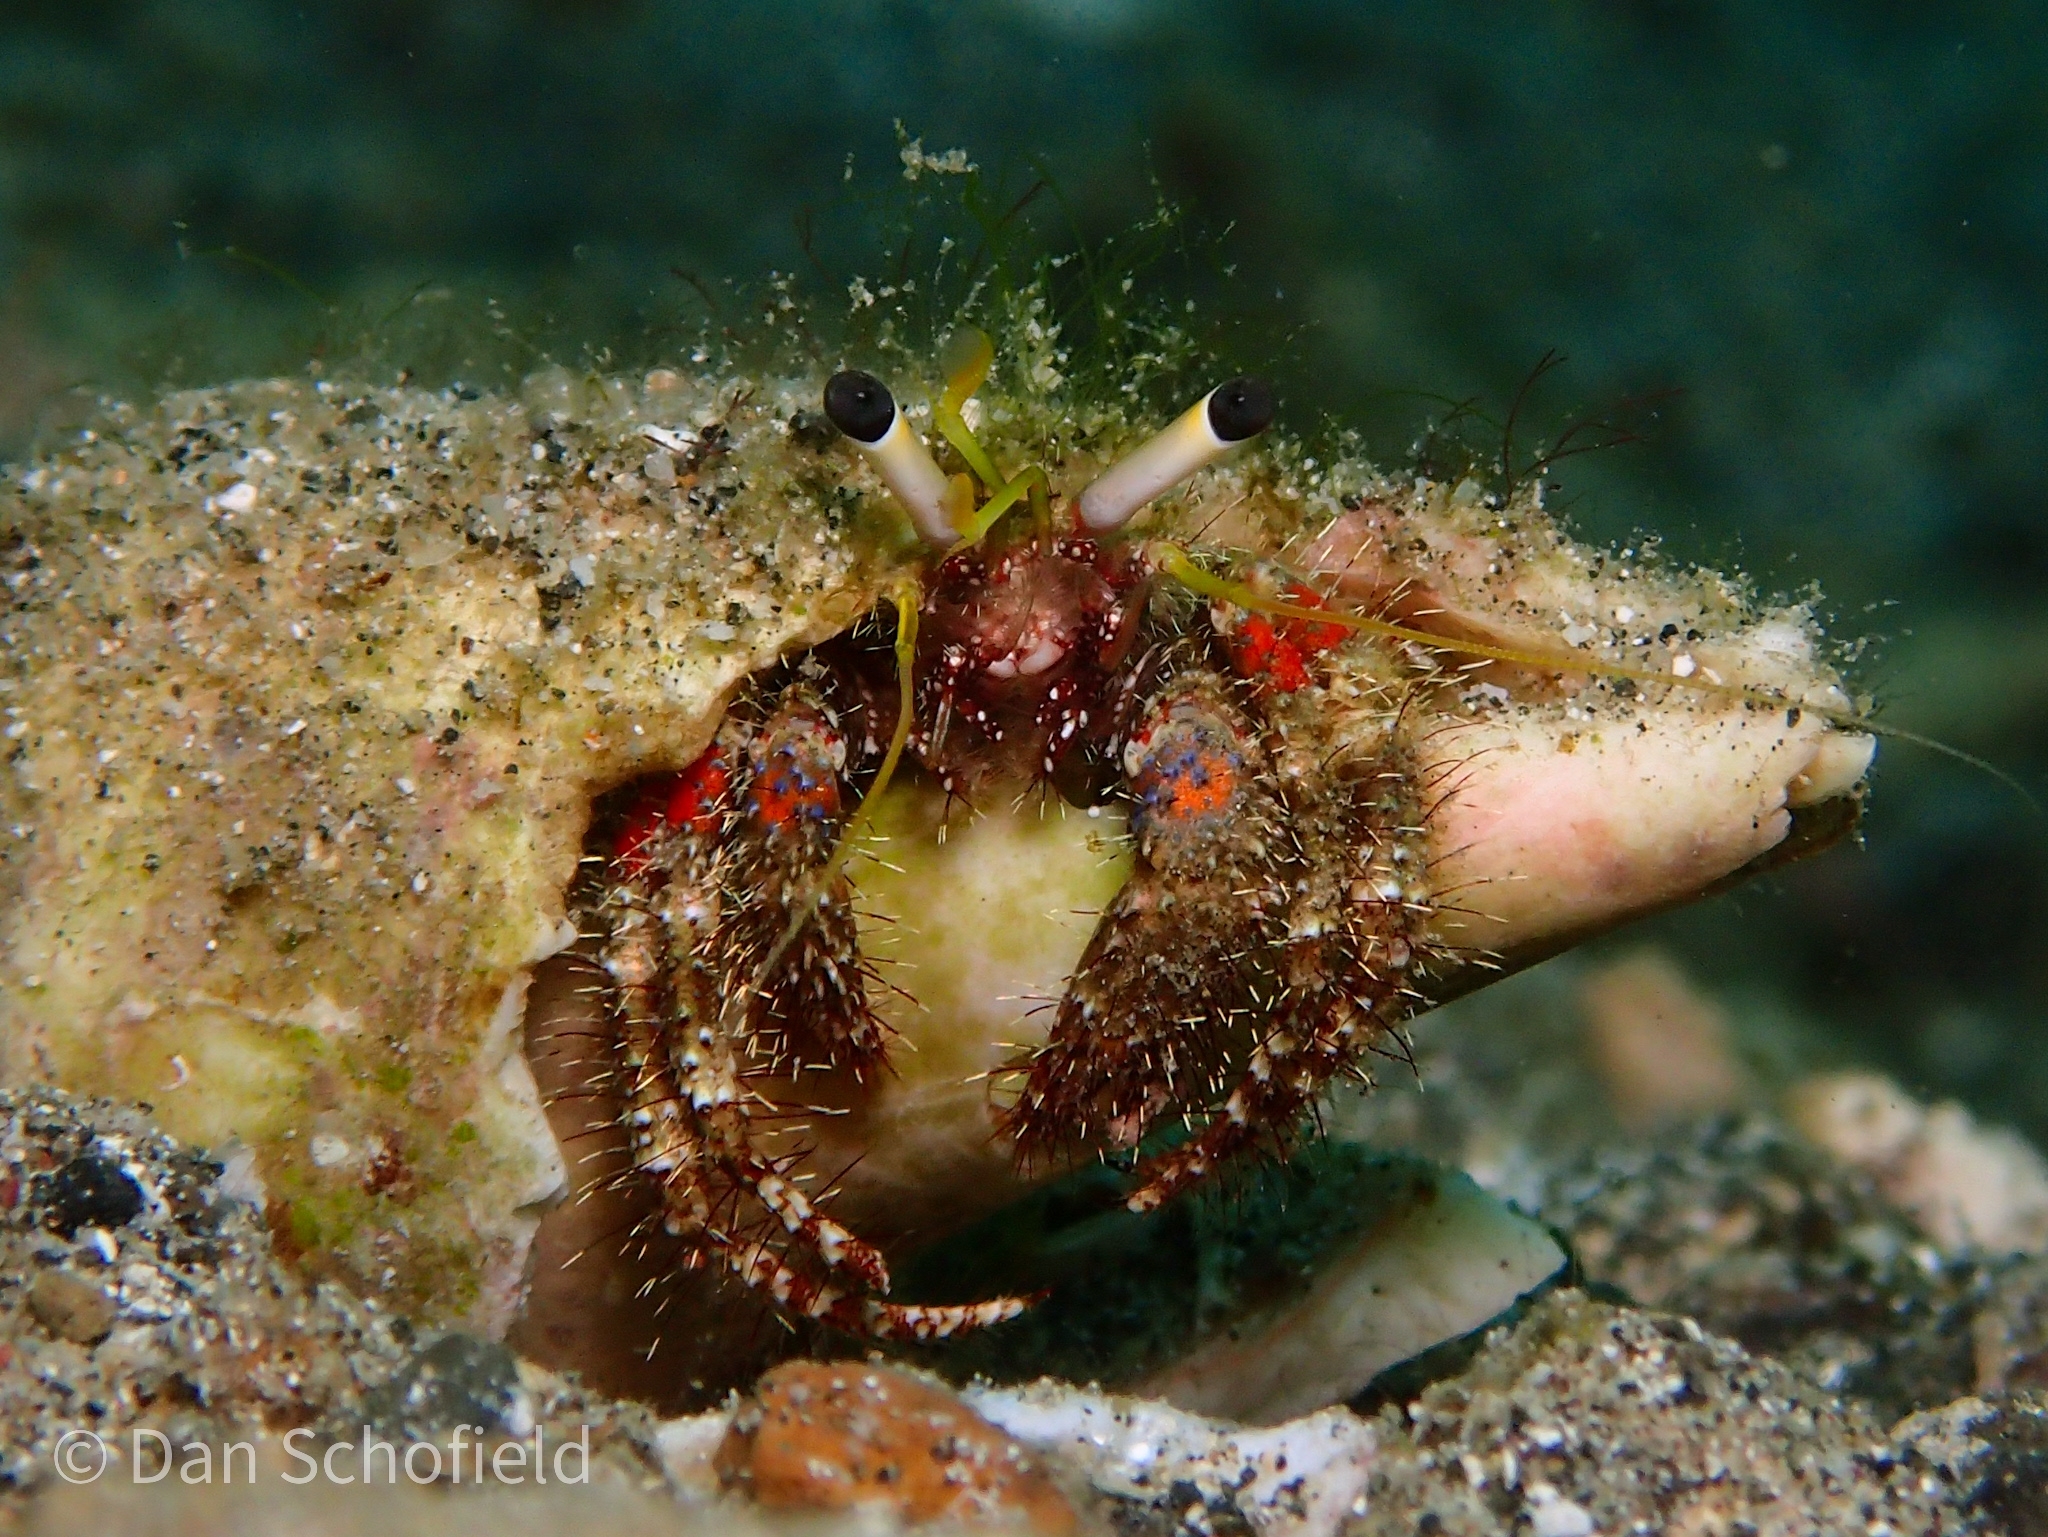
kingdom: Animalia
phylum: Arthropoda
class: Malacostraca
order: Decapoda
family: Diogenidae
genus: Dardanus
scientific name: Dardanus sanguinolentus
